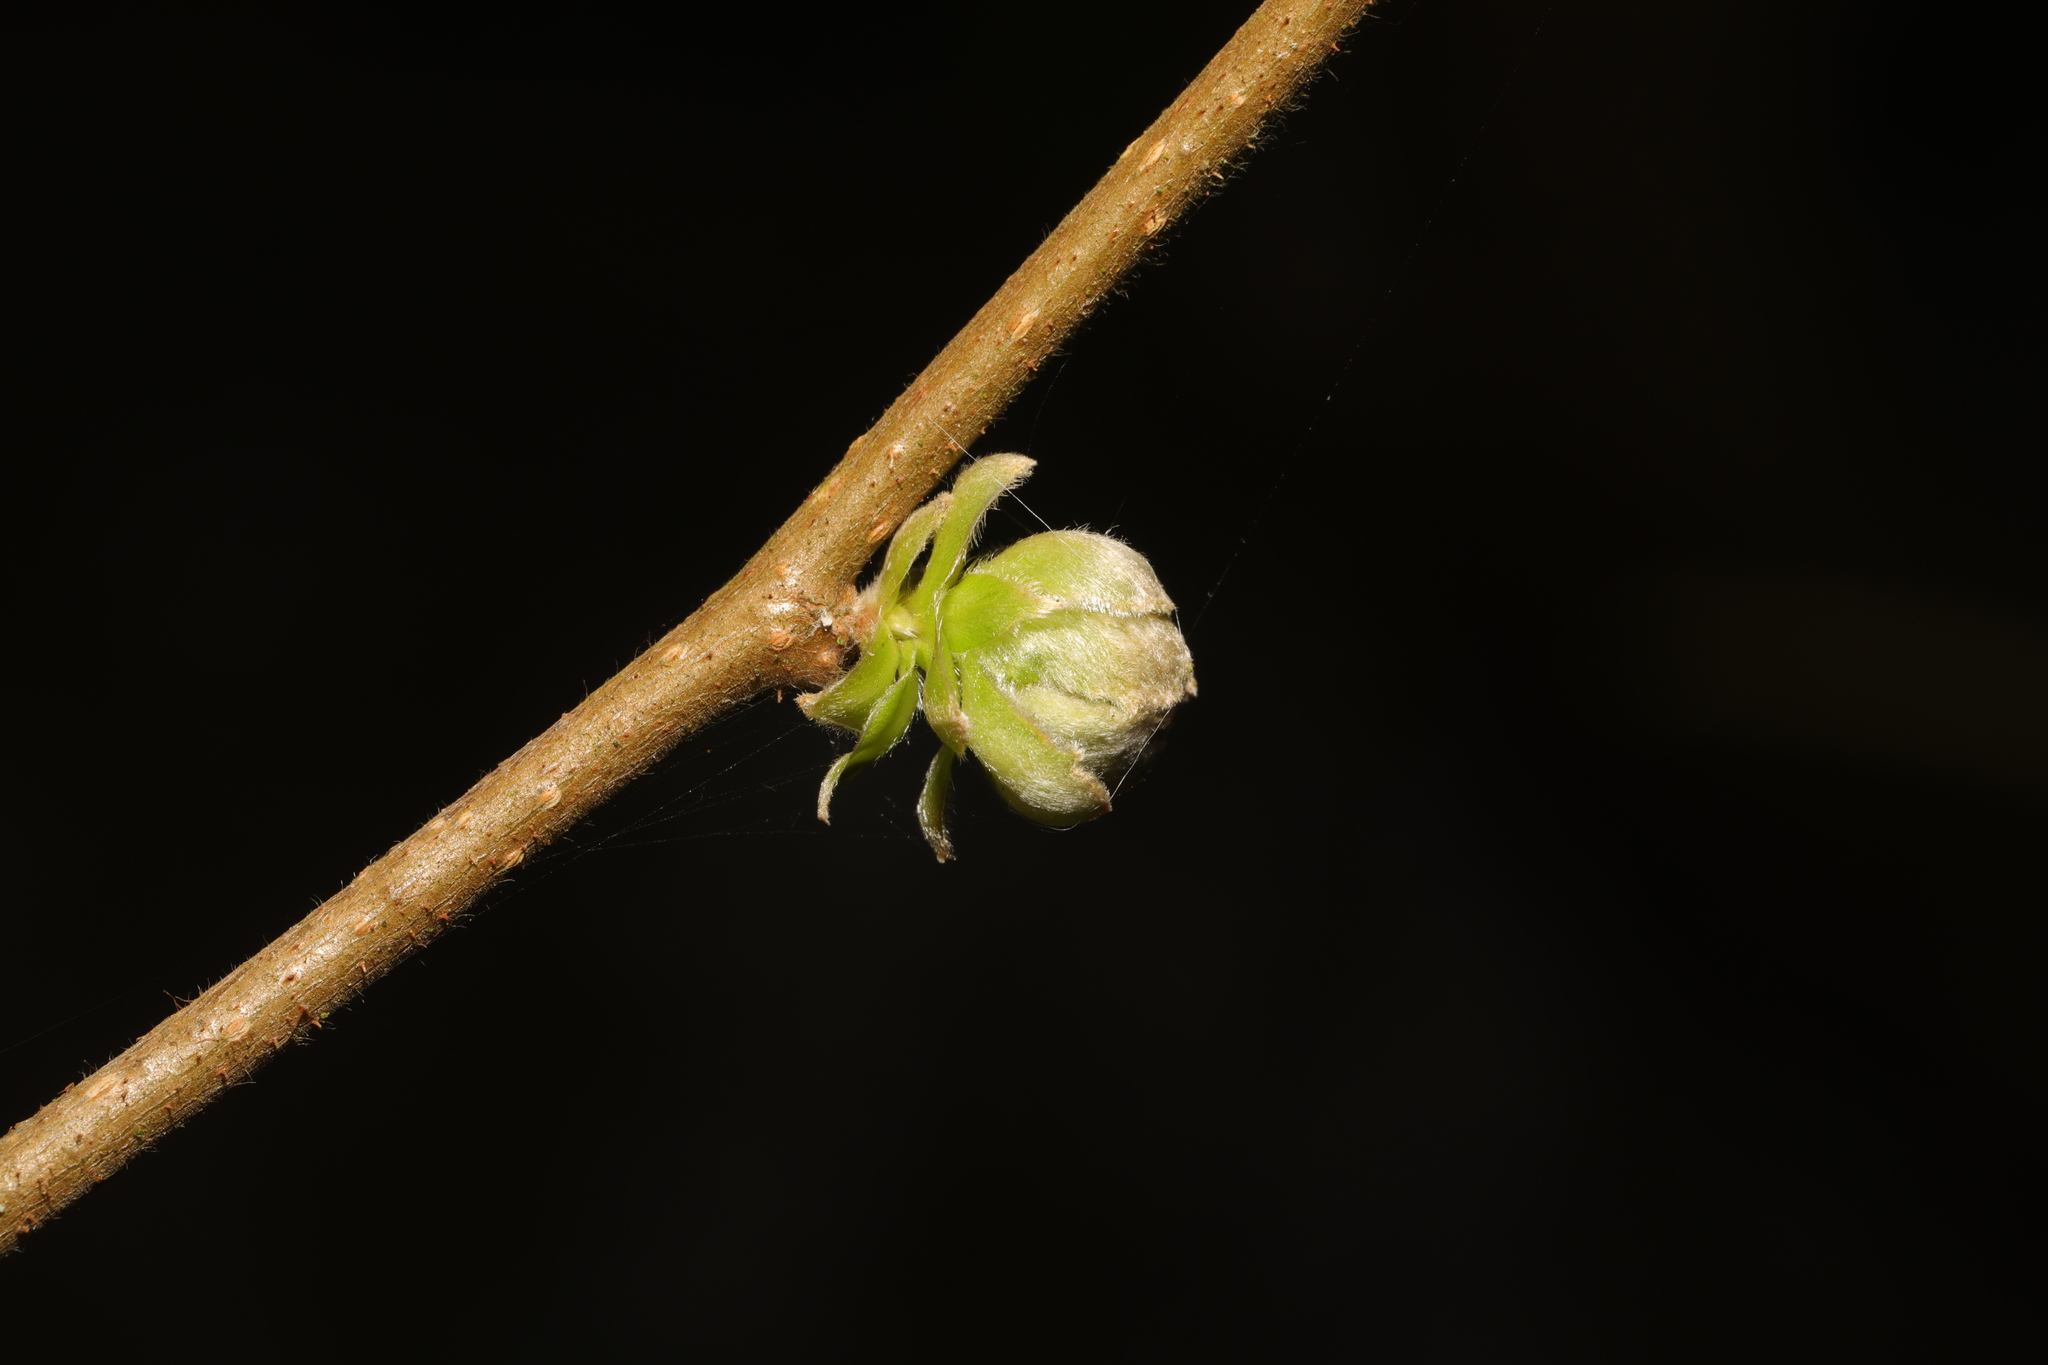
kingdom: Plantae
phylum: Tracheophyta
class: Magnoliopsida
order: Fagales
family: Betulaceae
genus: Corylus
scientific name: Corylus avellana
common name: European hazel
